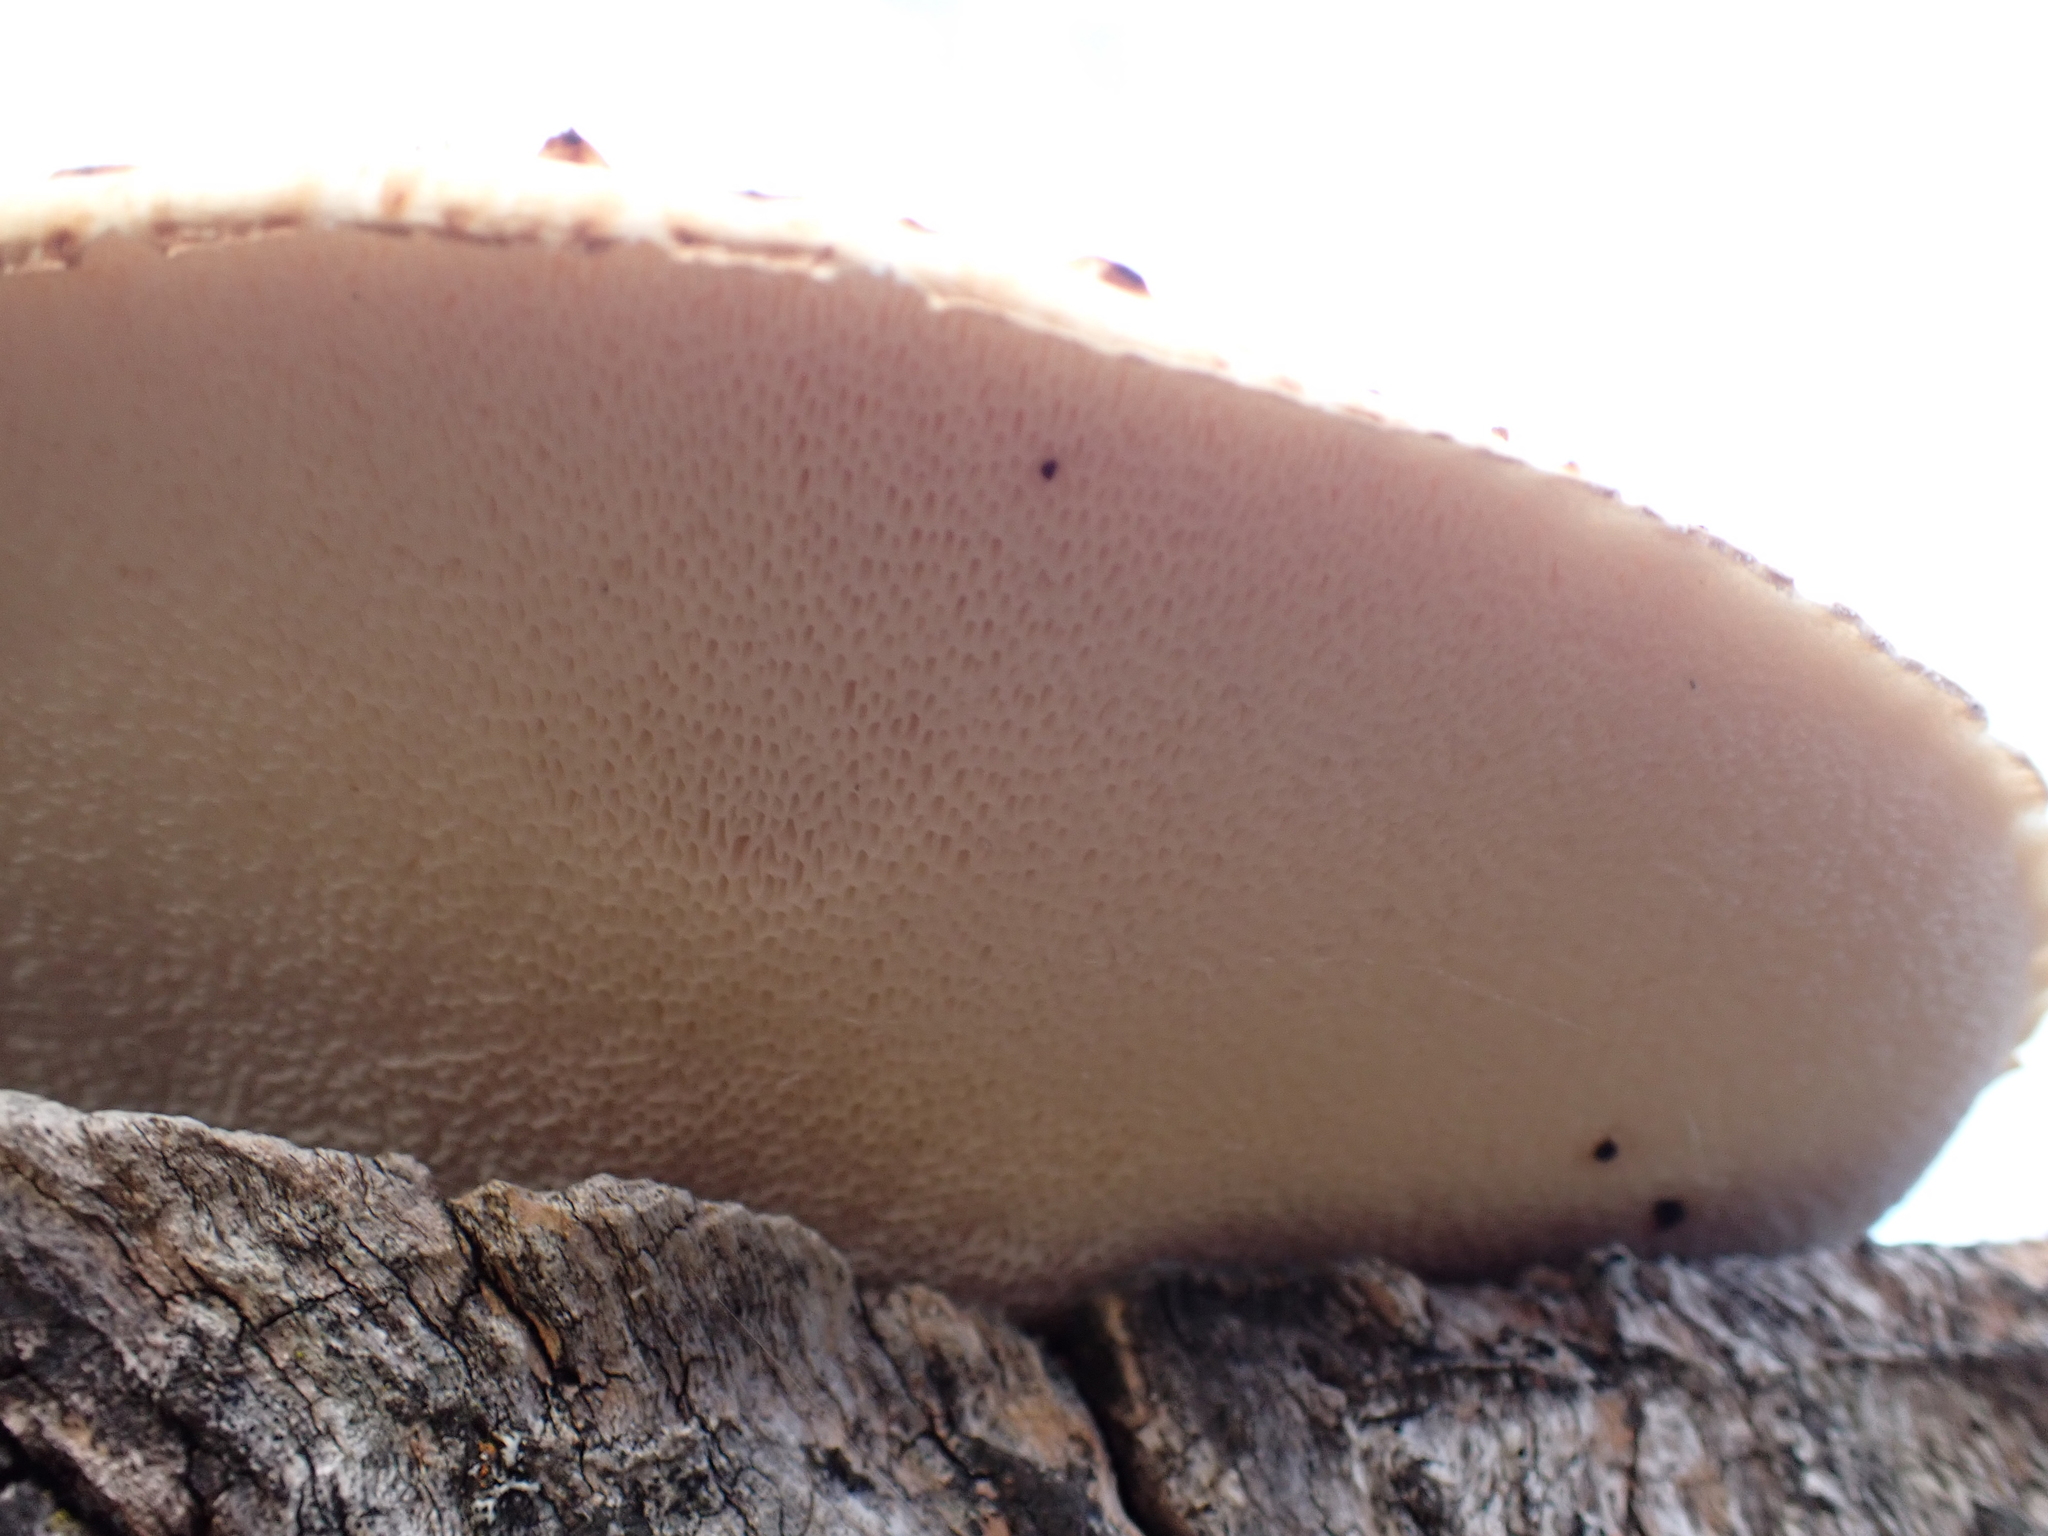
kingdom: Fungi
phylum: Basidiomycota
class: Agaricomycetes
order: Polyporales
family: Polyporaceae
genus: Cerioporus
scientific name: Cerioporus squamosus
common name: Dryad's saddle
